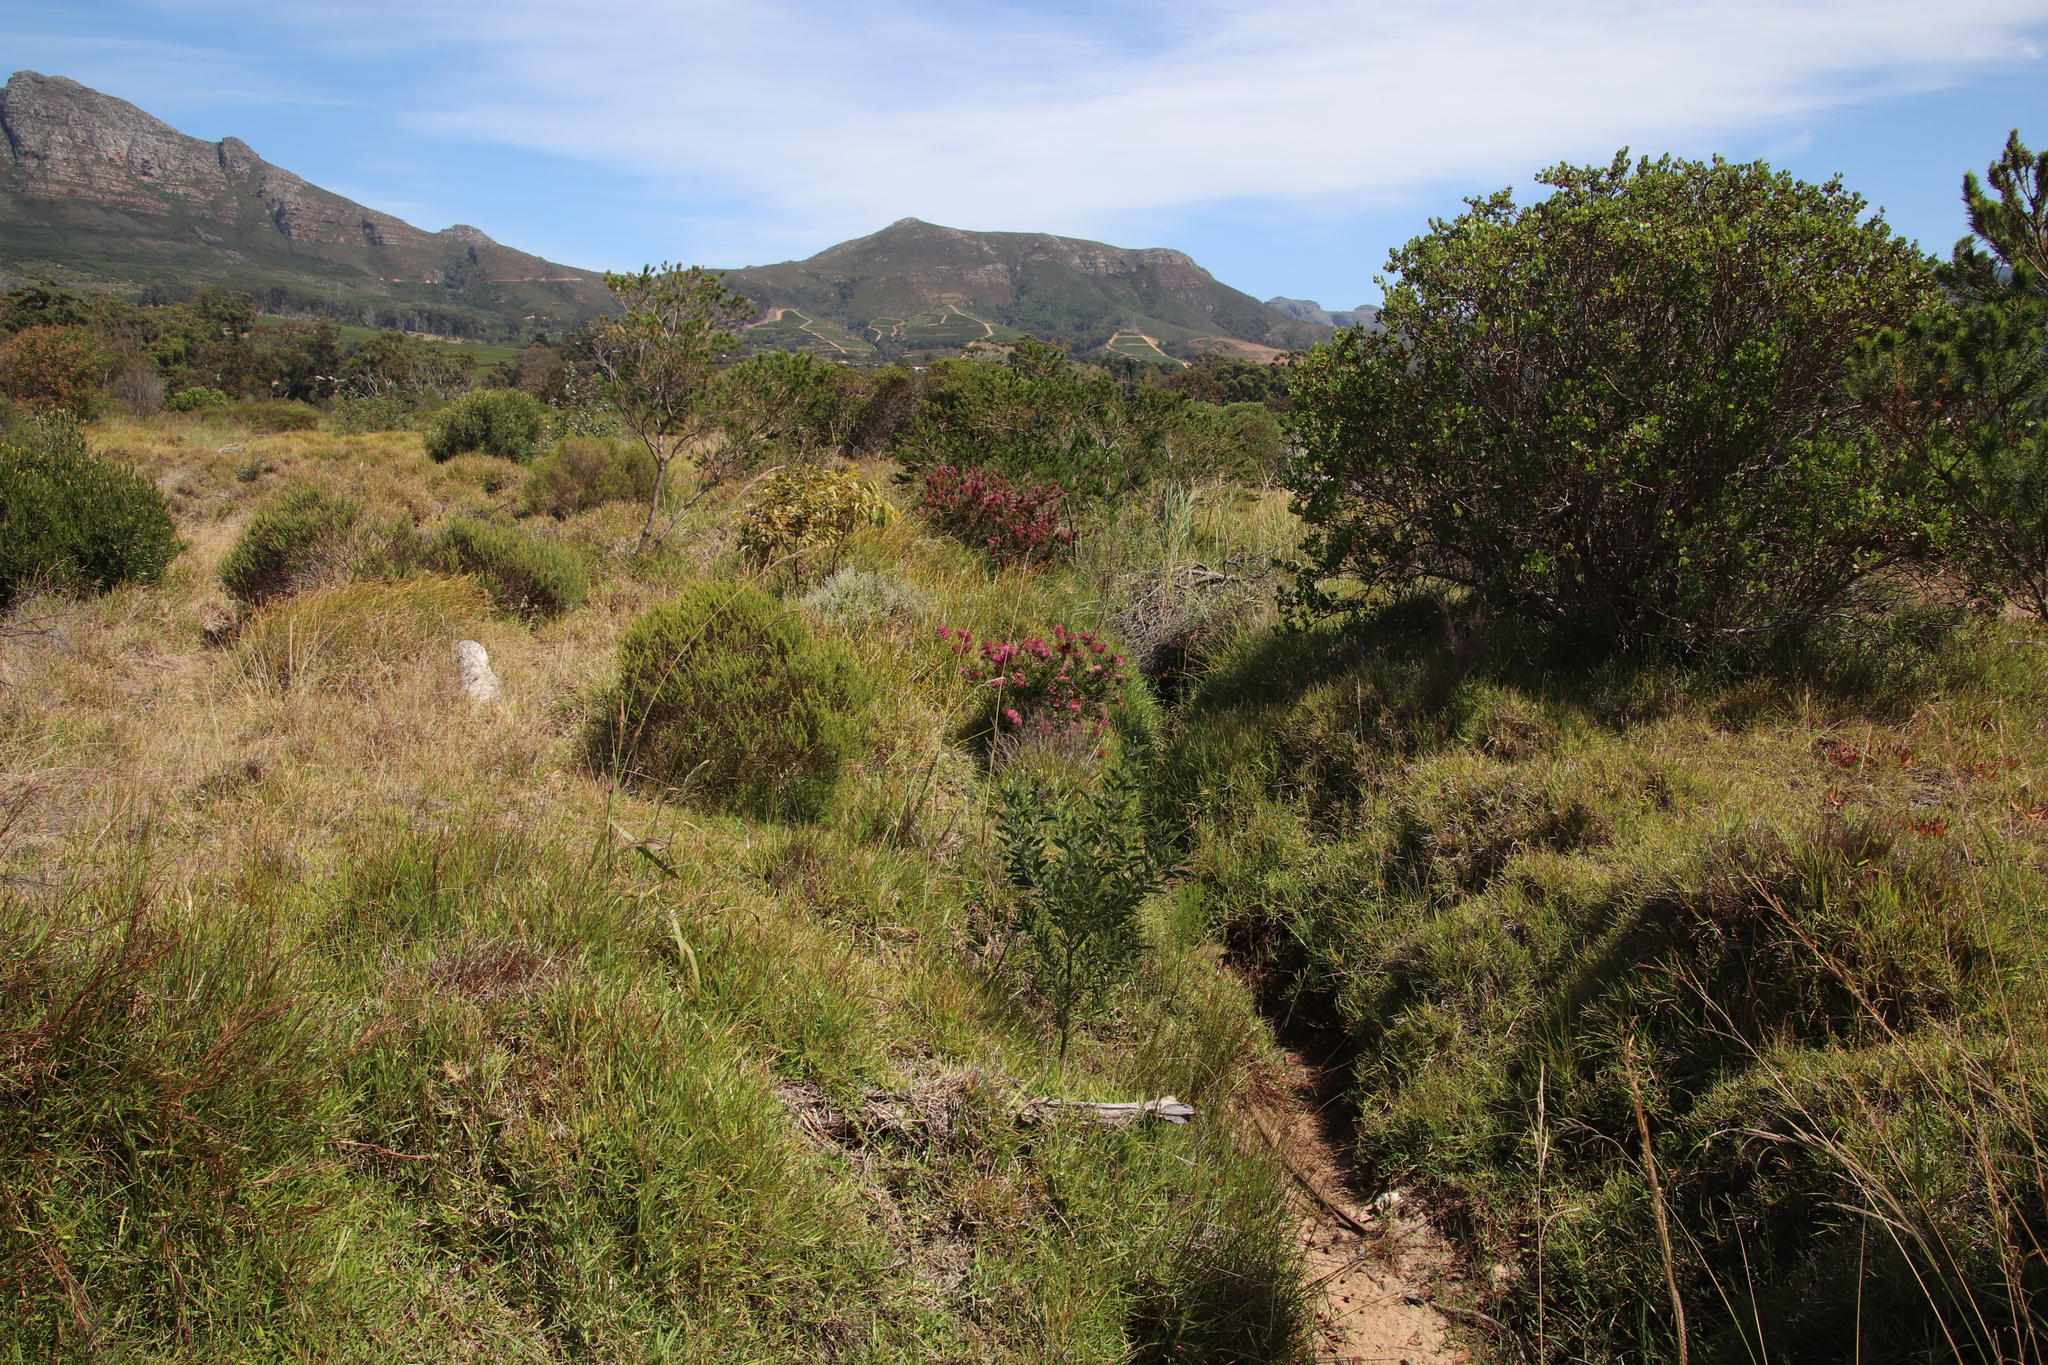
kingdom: Plantae
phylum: Tracheophyta
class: Magnoliopsida
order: Ericales
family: Ericaceae
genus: Erica
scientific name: Erica verticillata
